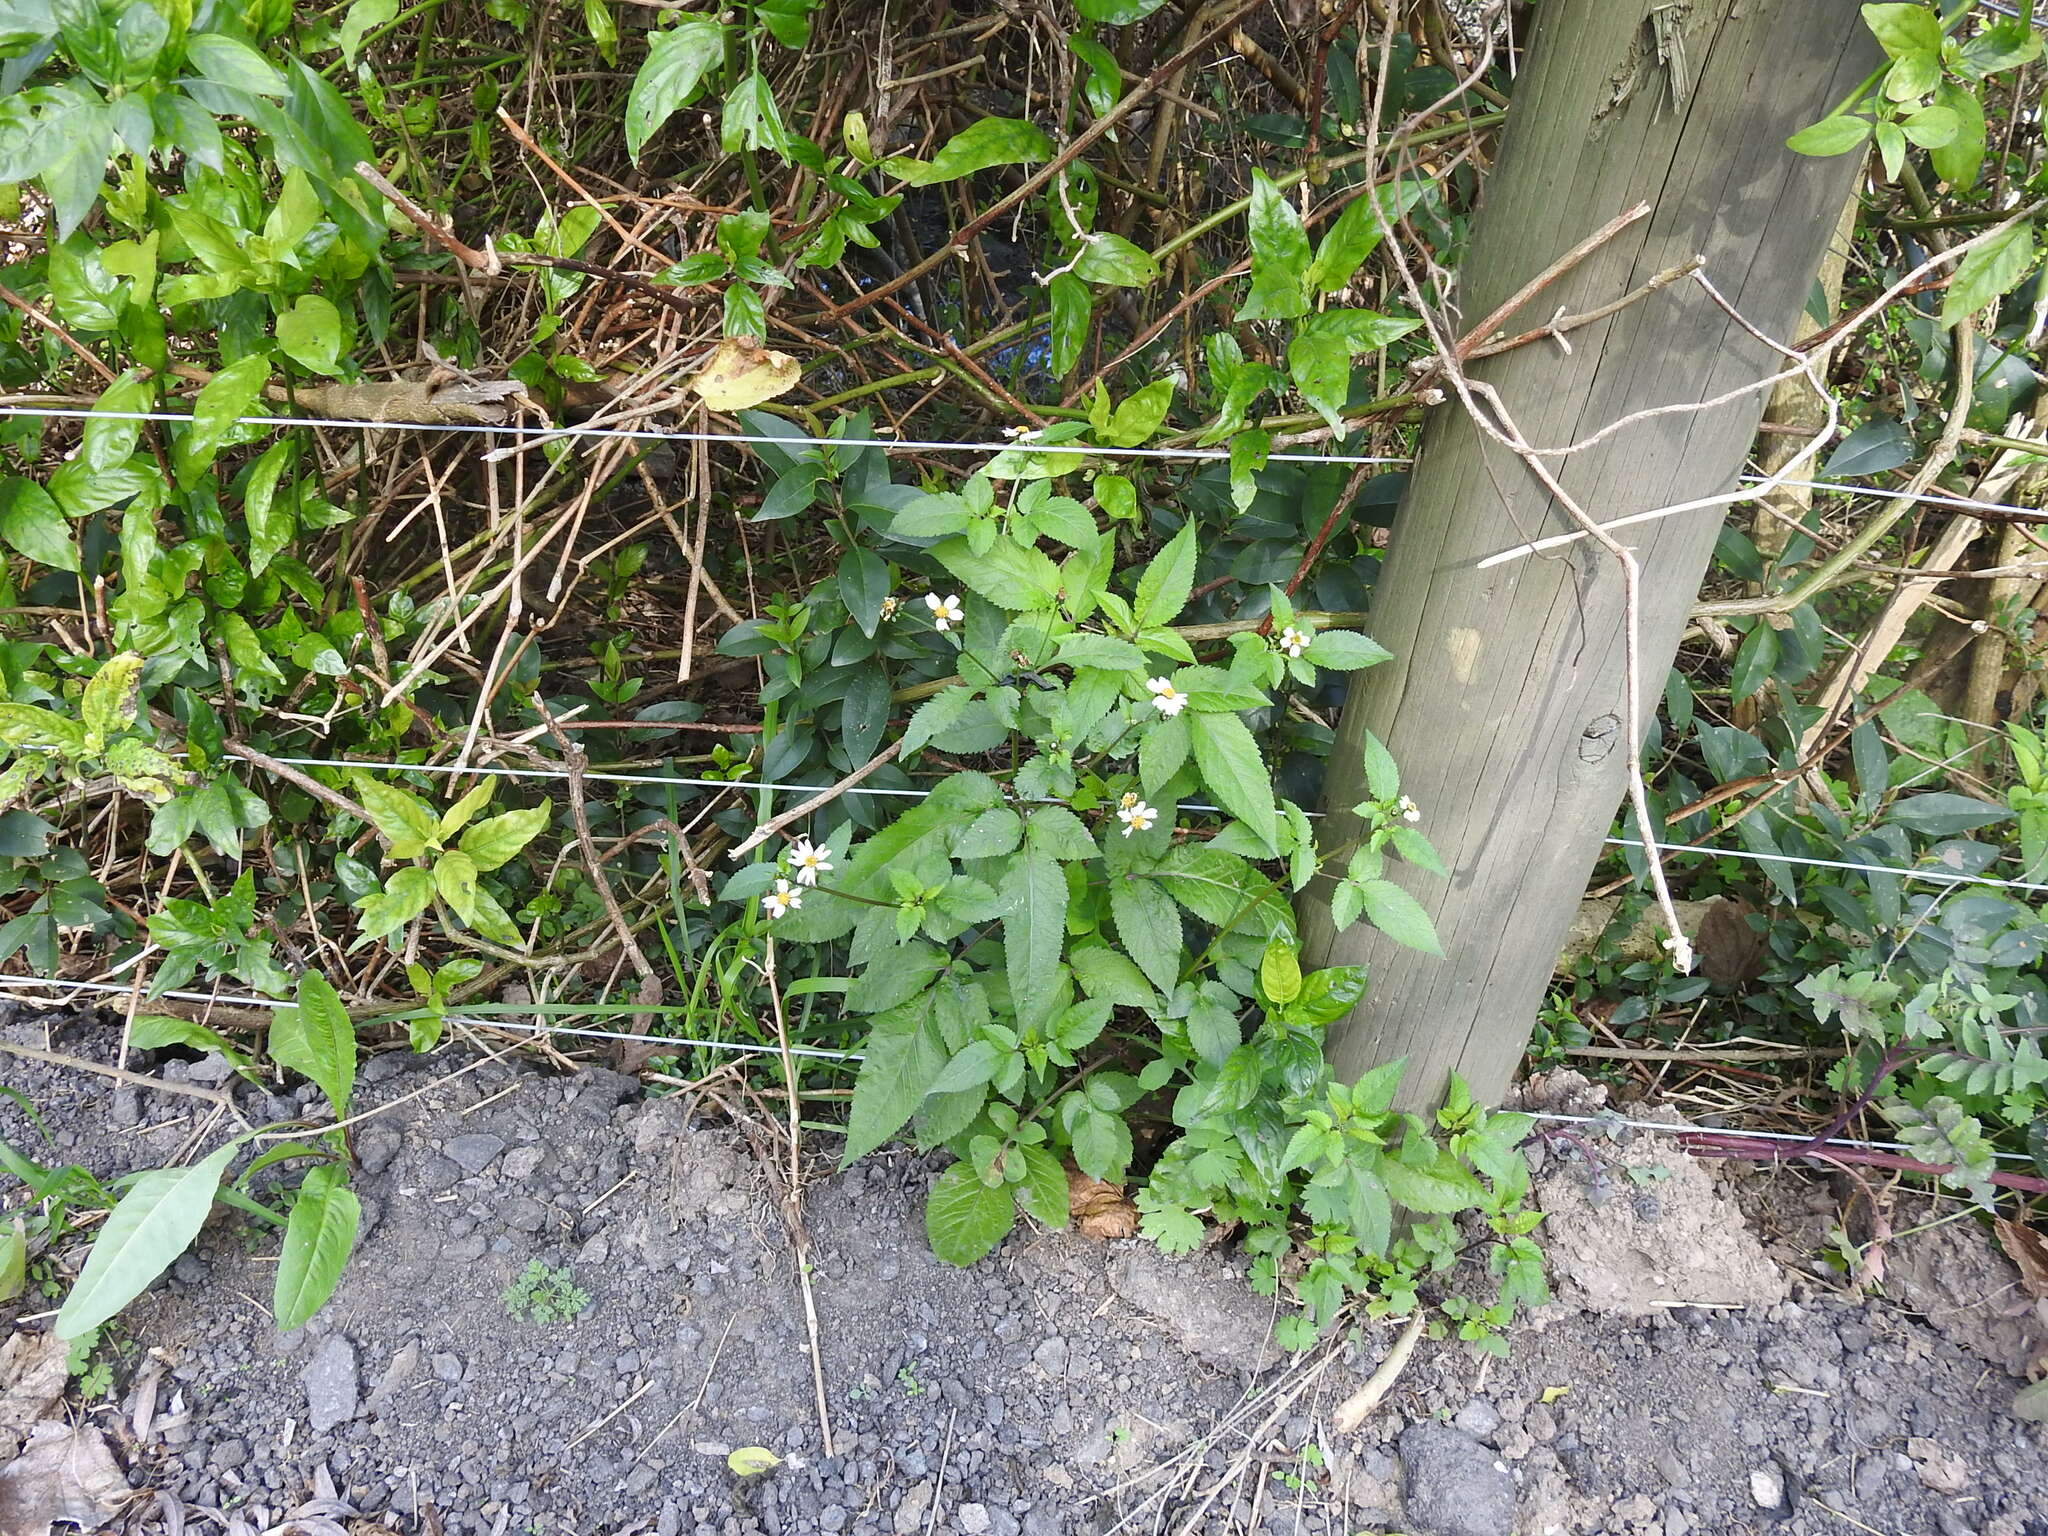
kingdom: Plantae
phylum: Tracheophyta
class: Magnoliopsida
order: Asterales
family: Asteraceae
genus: Bidens
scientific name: Bidens pilosa
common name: Black-jack
